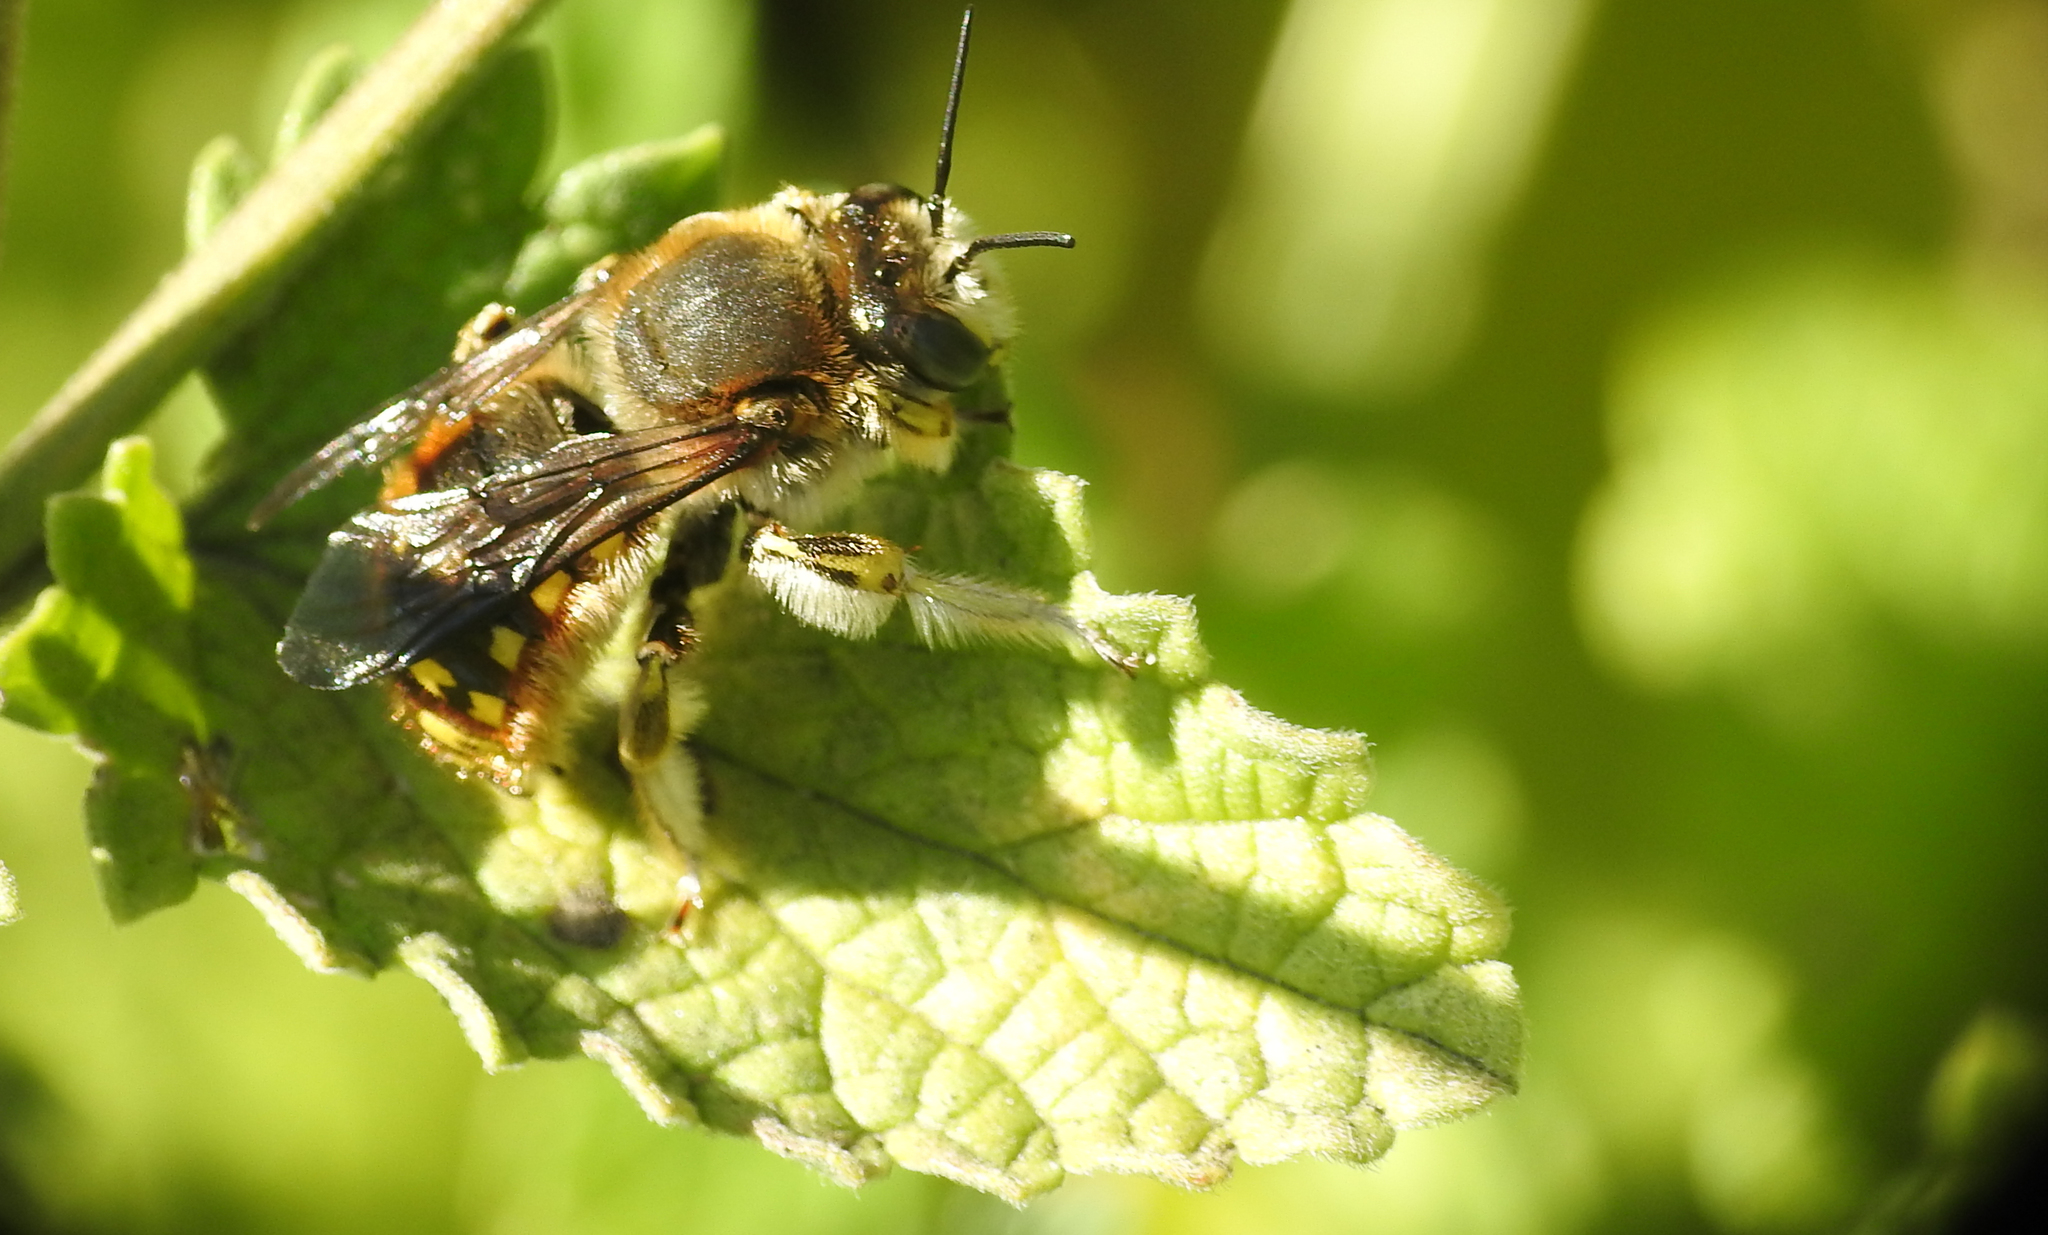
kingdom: Animalia
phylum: Arthropoda
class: Insecta
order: Hymenoptera
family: Megachilidae
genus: Anthidium
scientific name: Anthidium manicatum
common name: Wool carder bee
